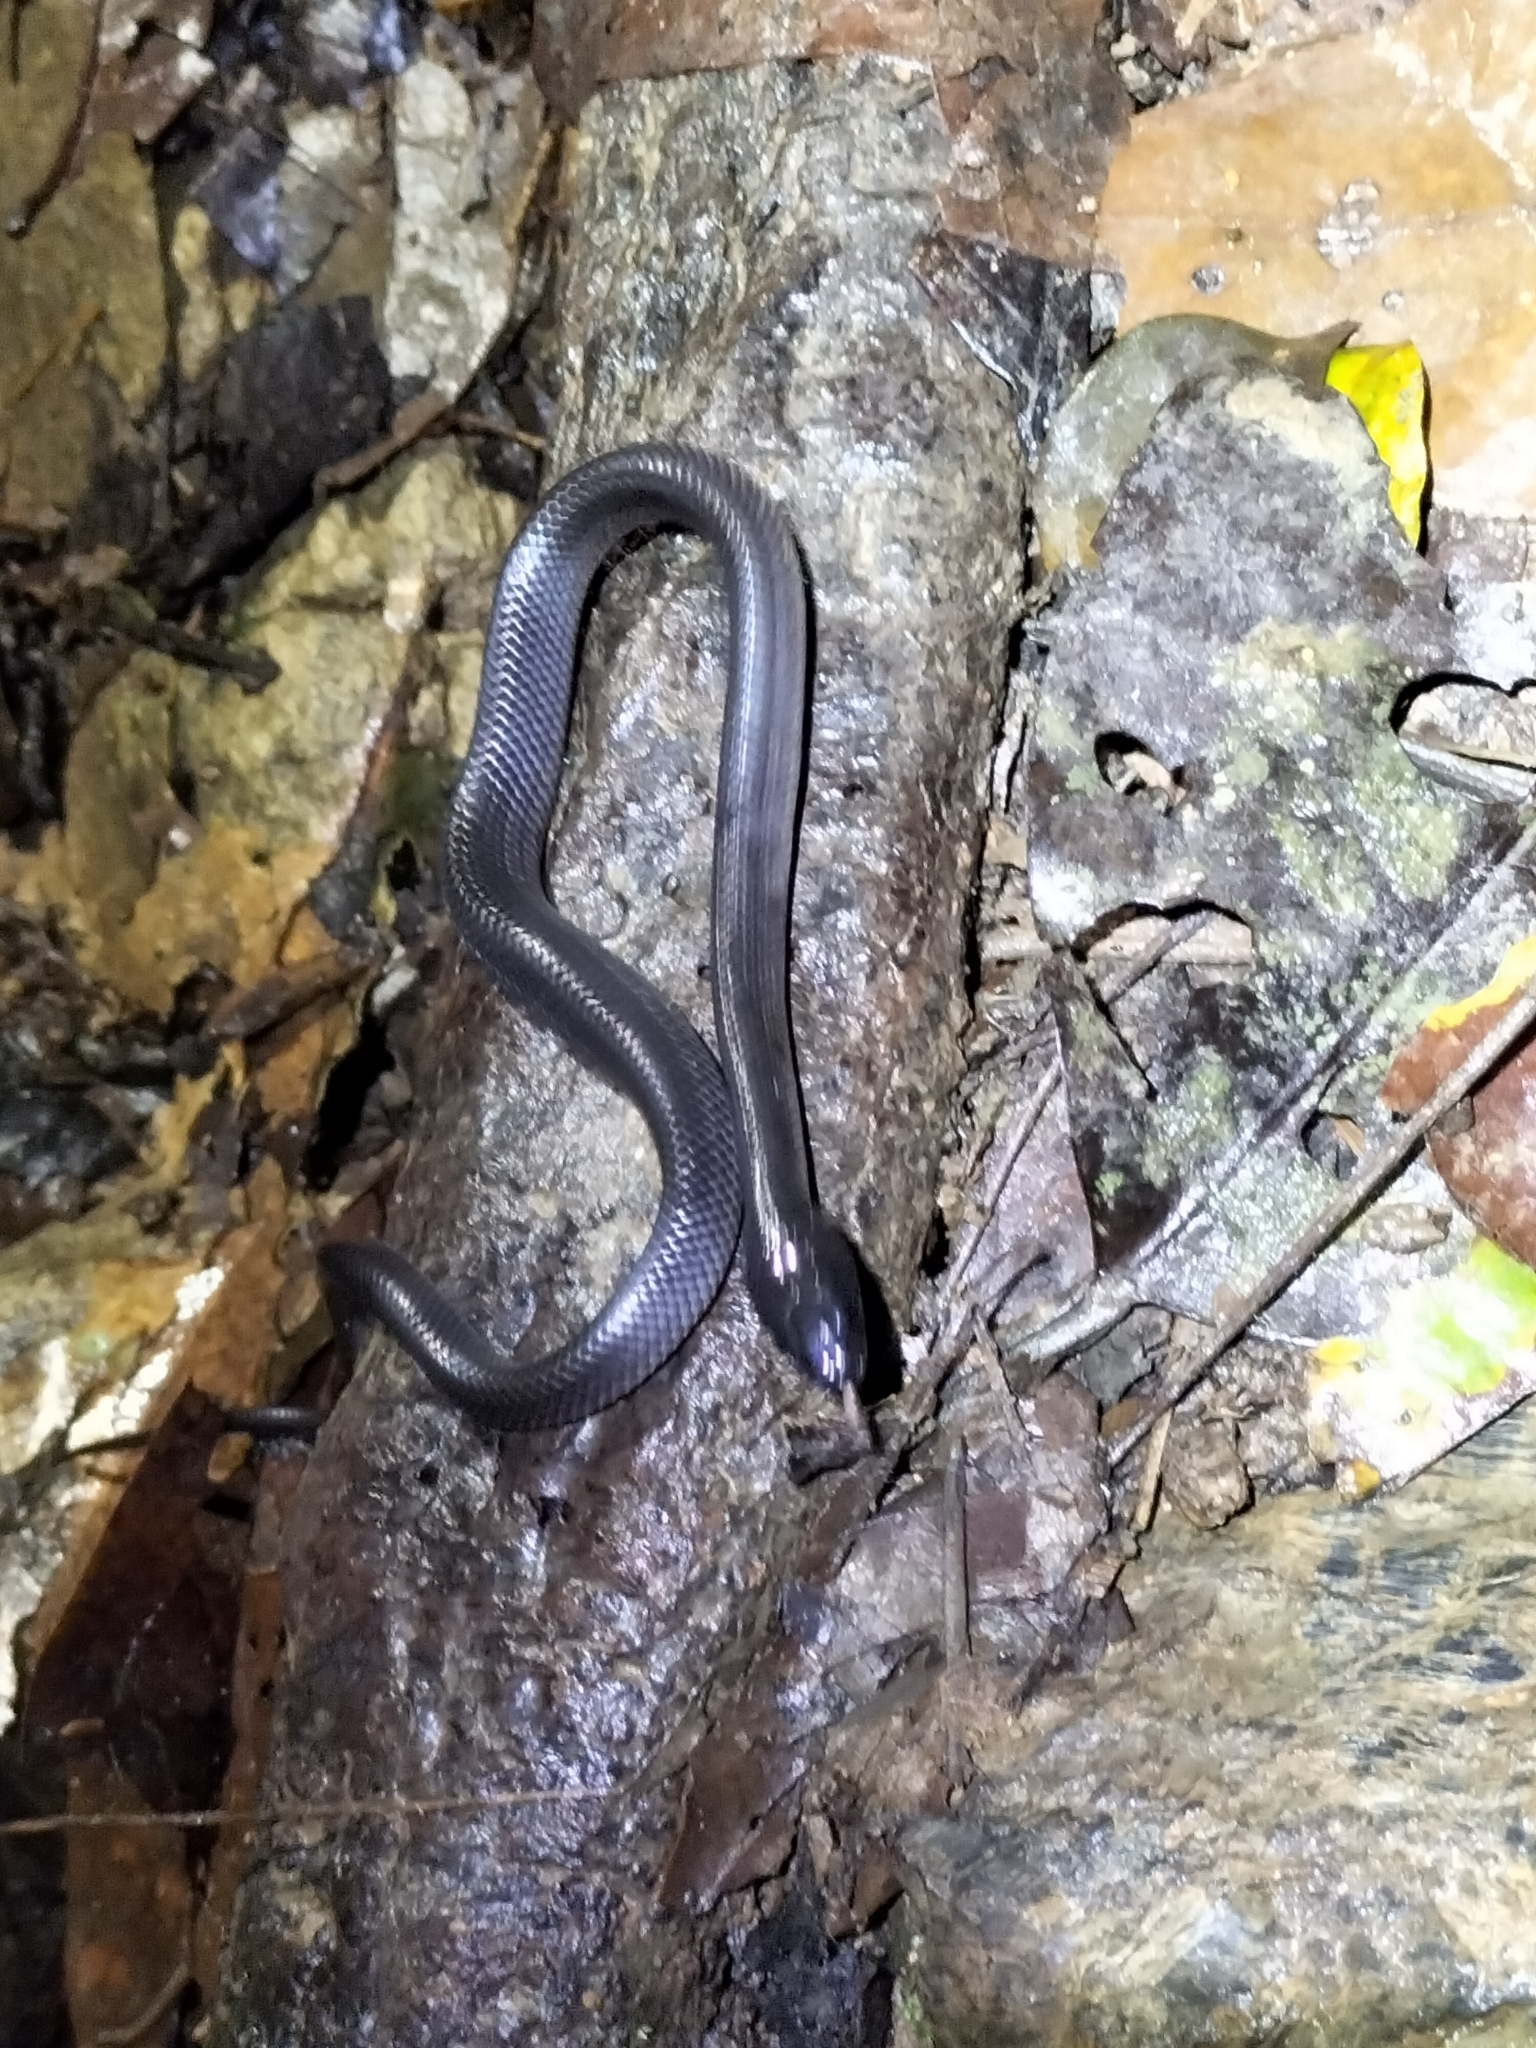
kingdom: Animalia
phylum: Chordata
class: Squamata
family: Colubridae
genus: Stegonotus
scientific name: Stegonotus australis
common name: Australian groundsnake
